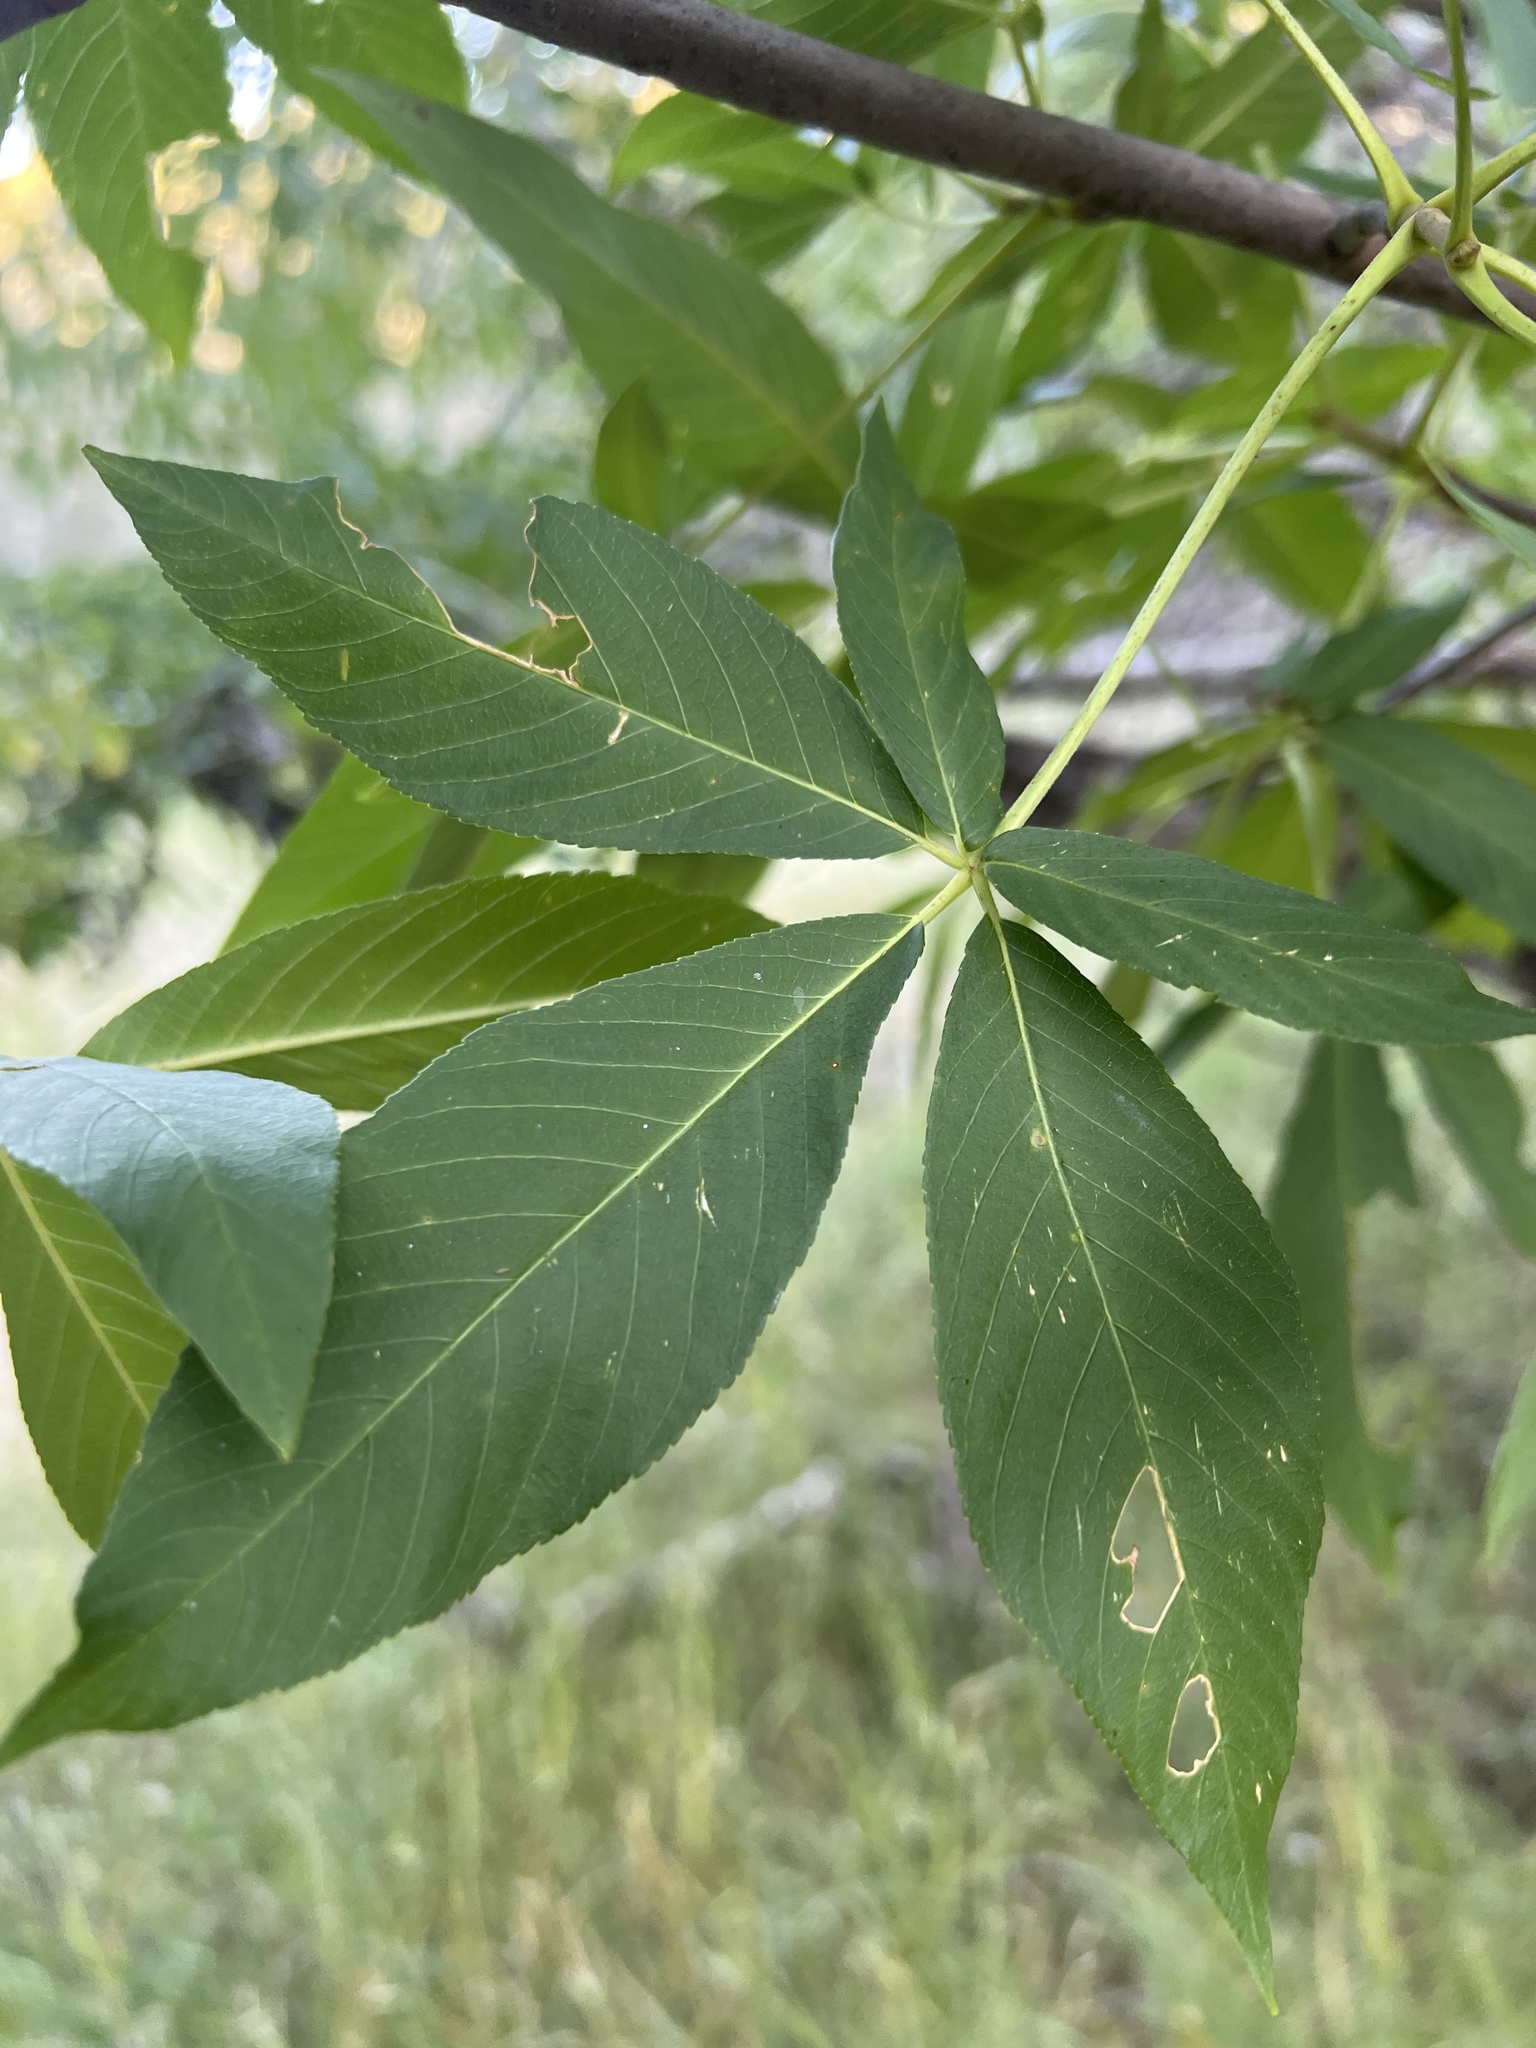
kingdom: Plantae
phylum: Tracheophyta
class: Magnoliopsida
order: Sapindales
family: Sapindaceae
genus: Aesculus
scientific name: Aesculus californica
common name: California buckeye
